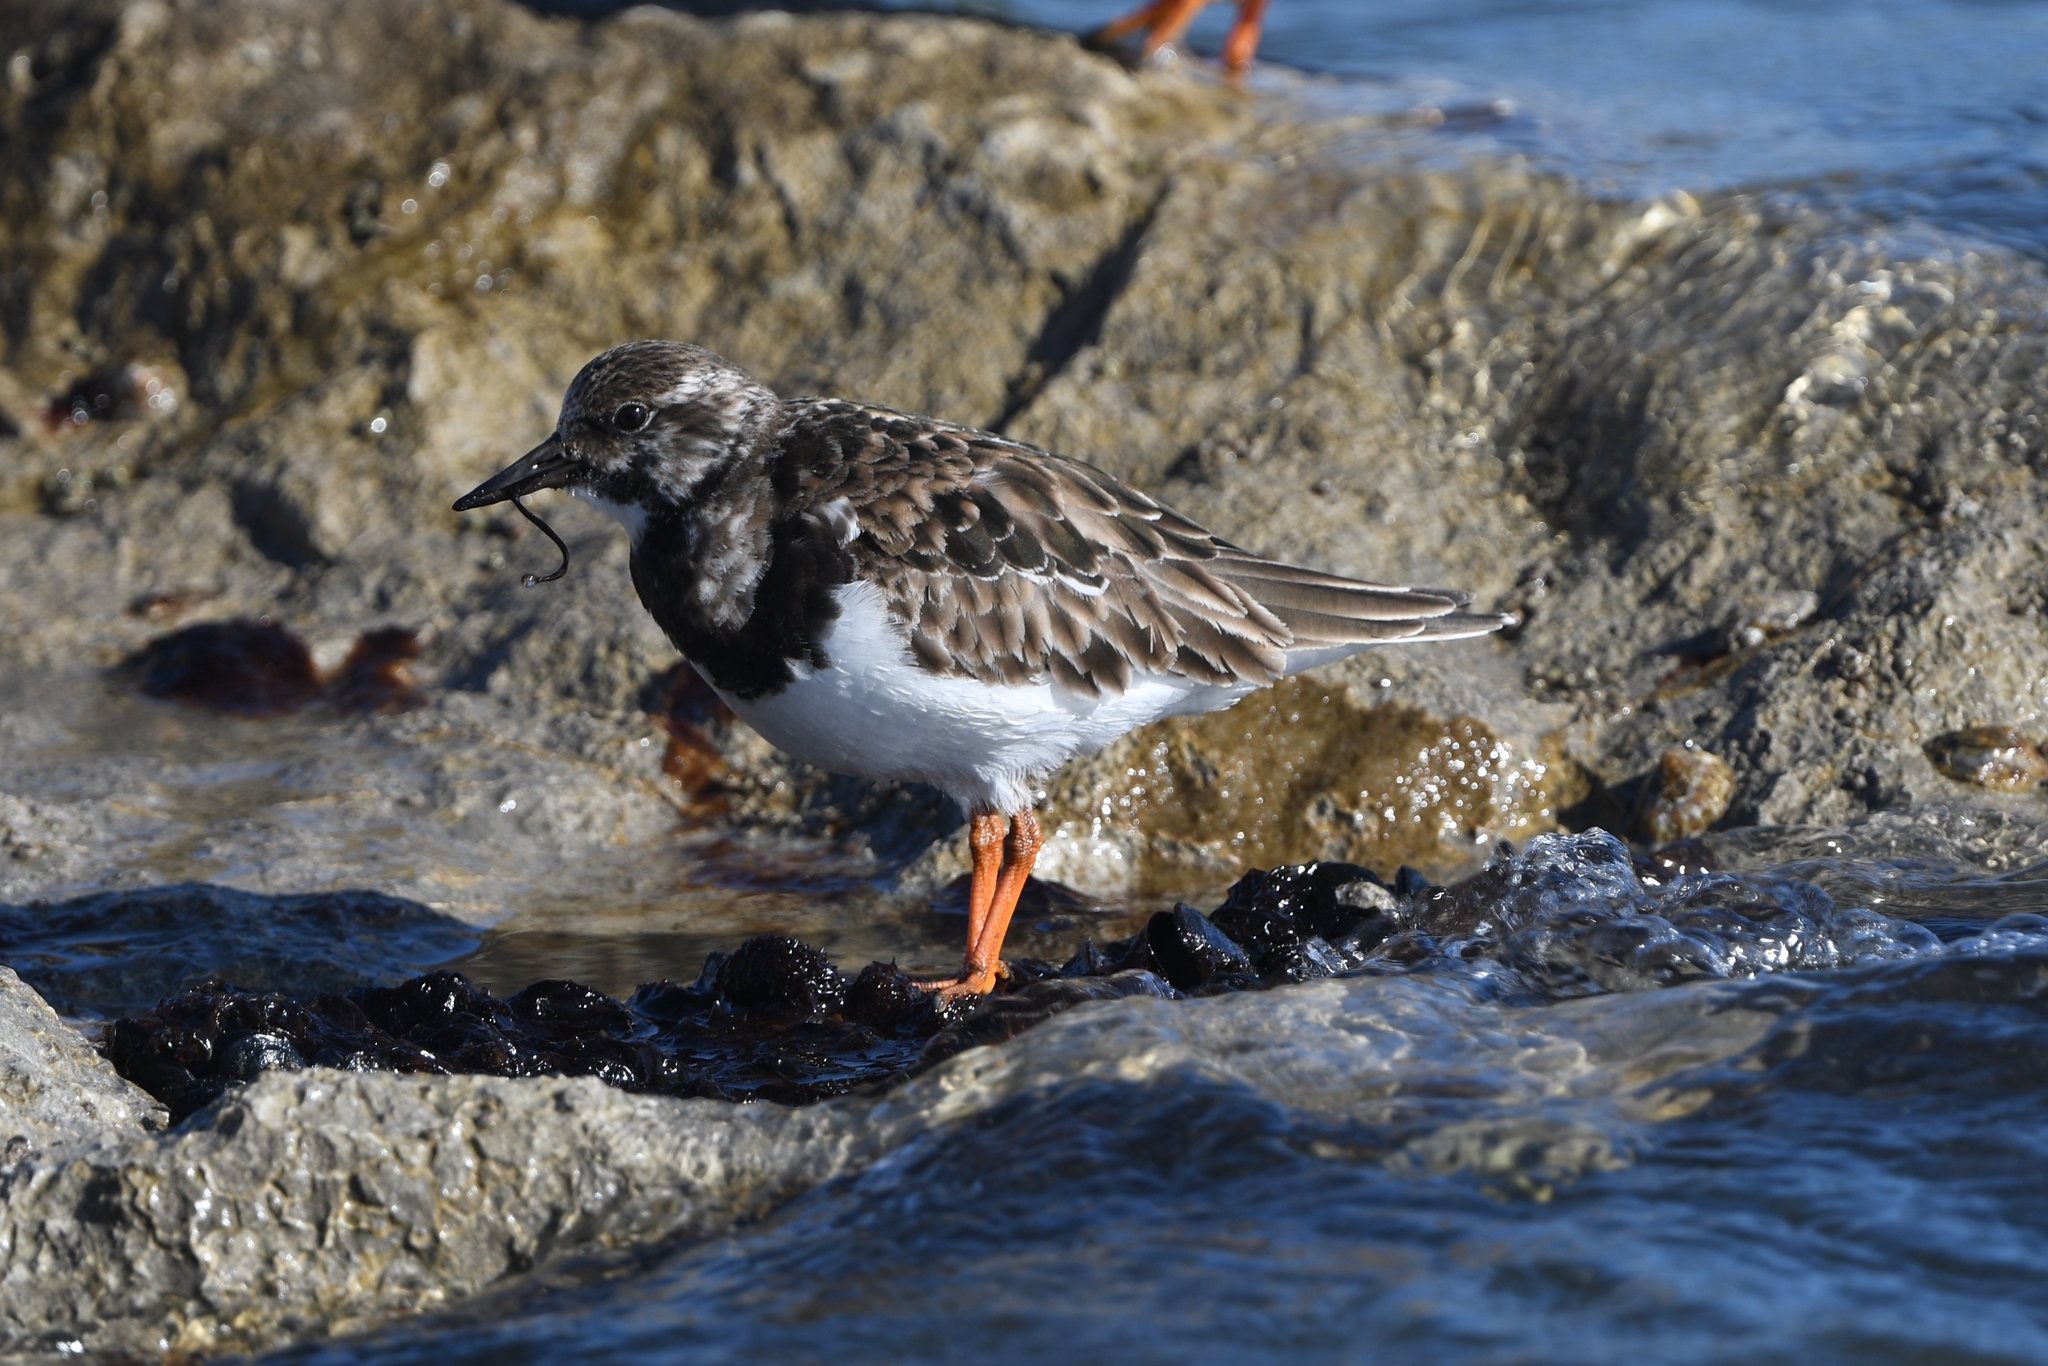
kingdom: Animalia
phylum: Chordata
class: Aves
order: Charadriiformes
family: Scolopacidae
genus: Arenaria
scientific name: Arenaria interpres
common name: Ruddy turnstone
